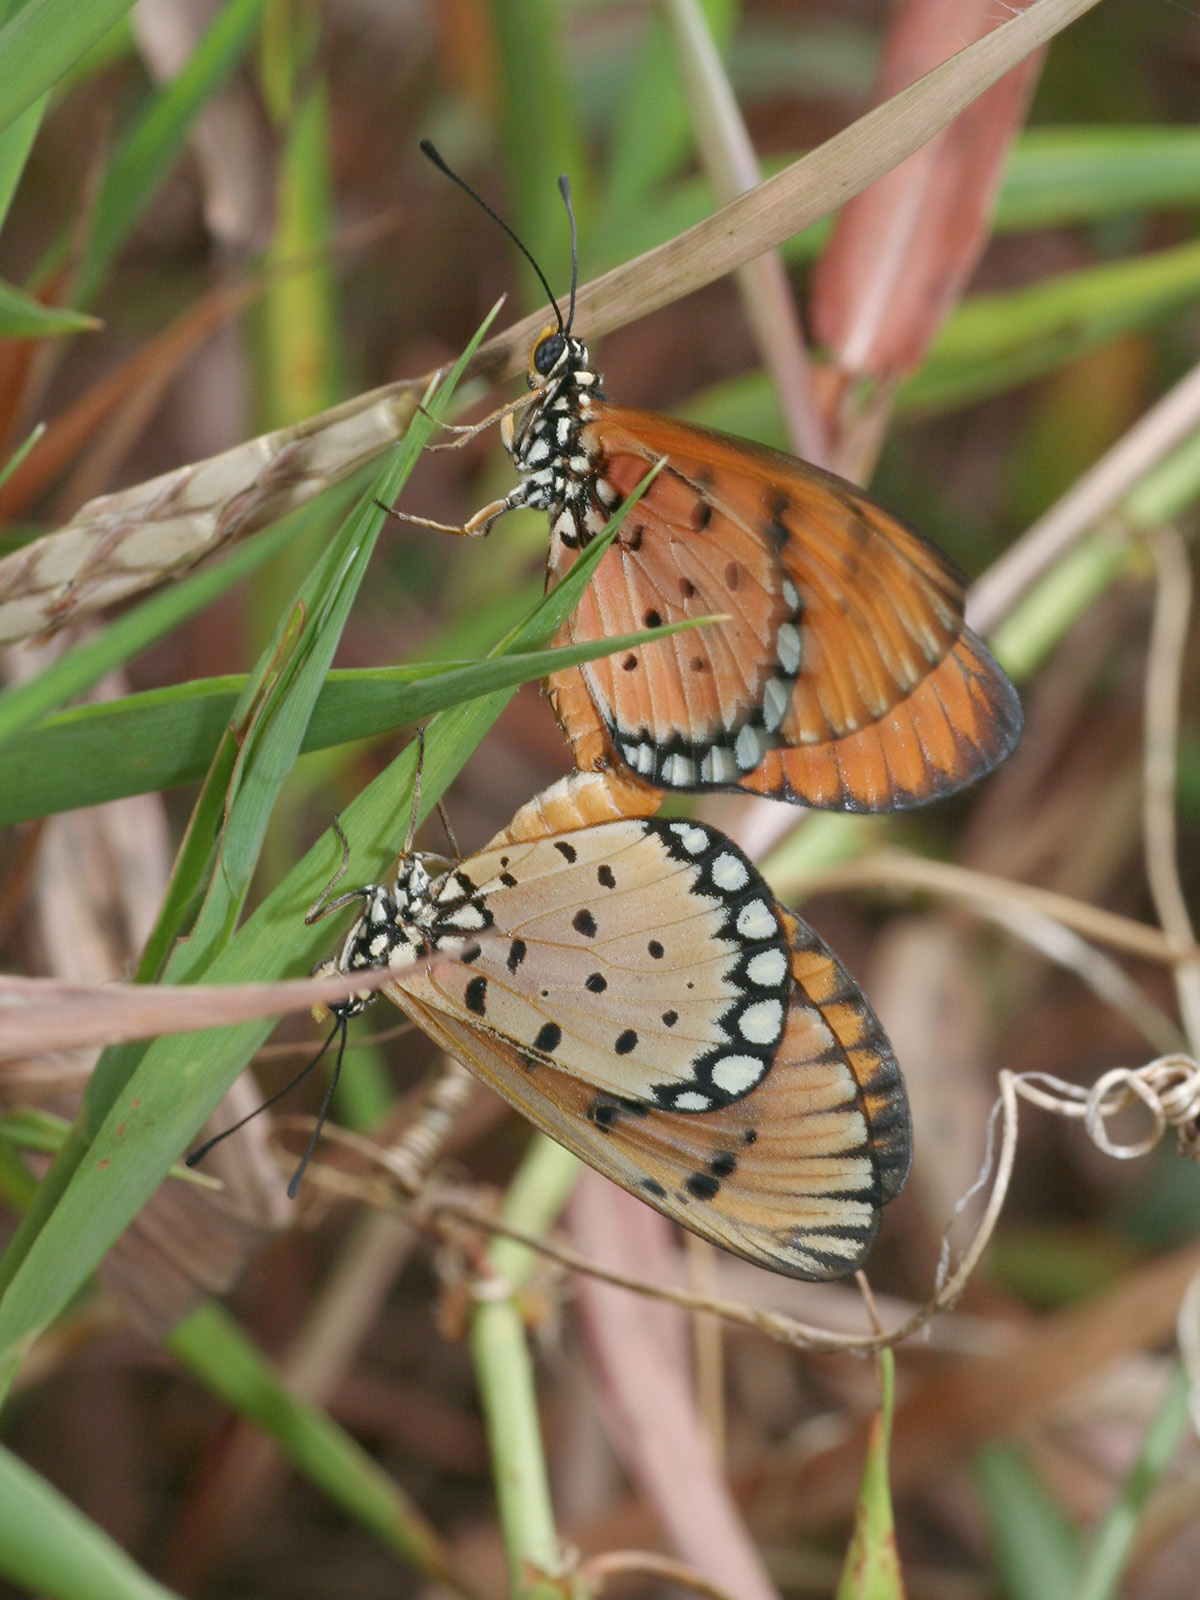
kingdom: Animalia
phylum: Arthropoda
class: Insecta
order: Lepidoptera
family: Nymphalidae
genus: Acraea
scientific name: Acraea terpsicore
